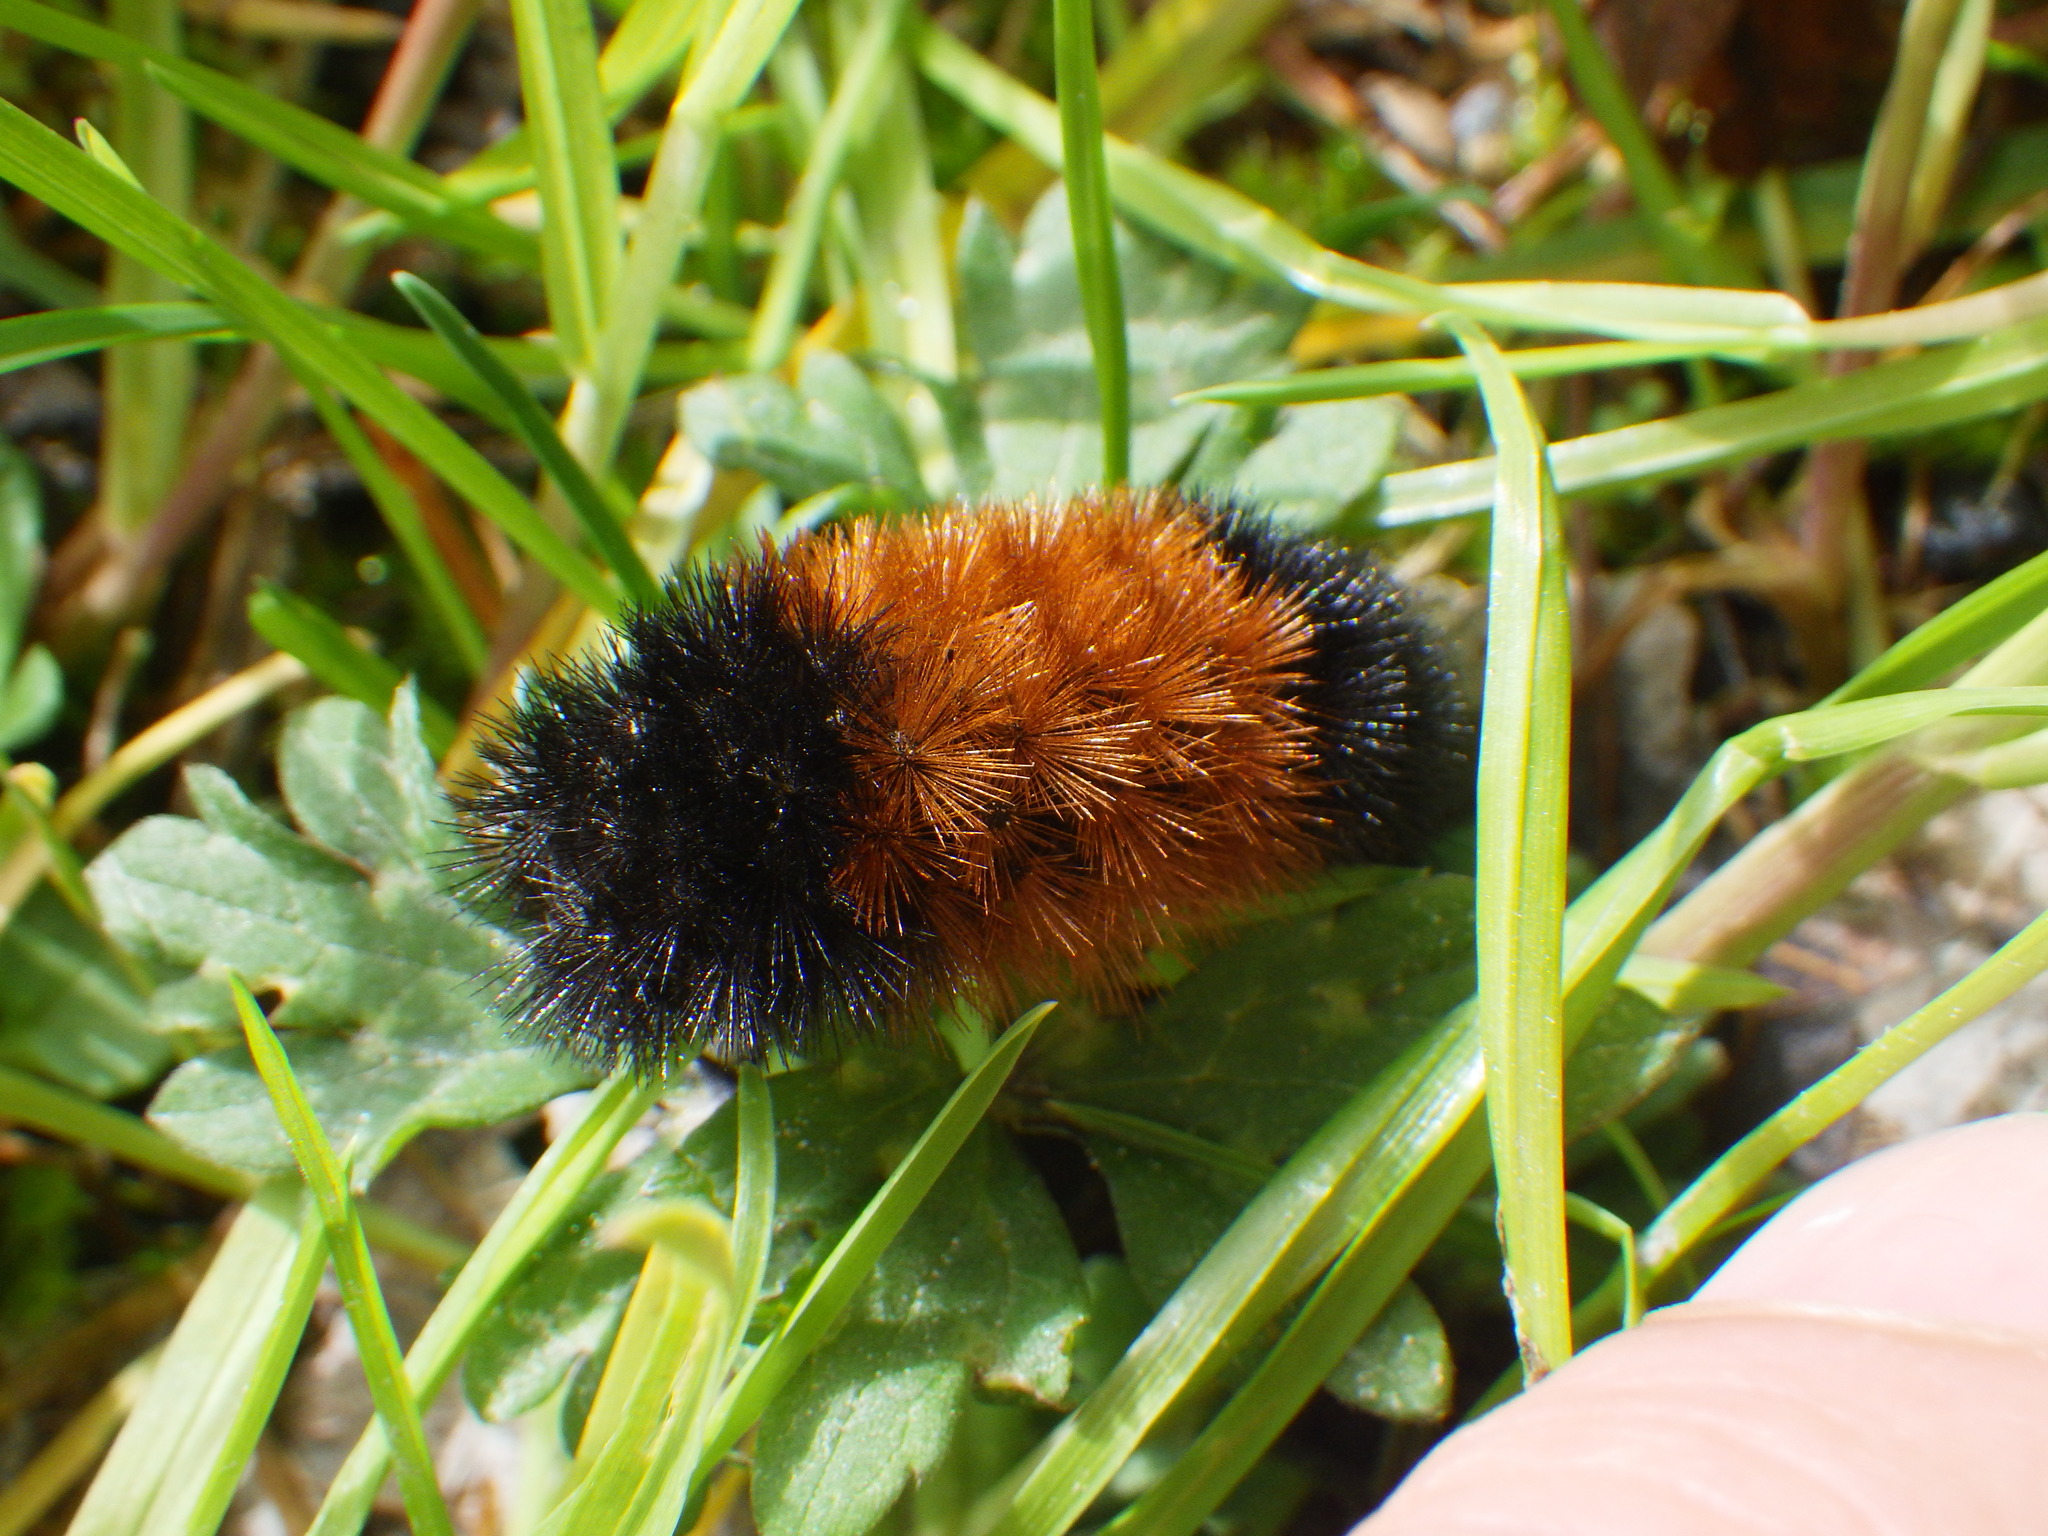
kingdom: Animalia
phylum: Arthropoda
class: Insecta
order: Lepidoptera
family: Erebidae
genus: Pyrrharctia
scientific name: Pyrrharctia isabella
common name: Isabella tiger moth
